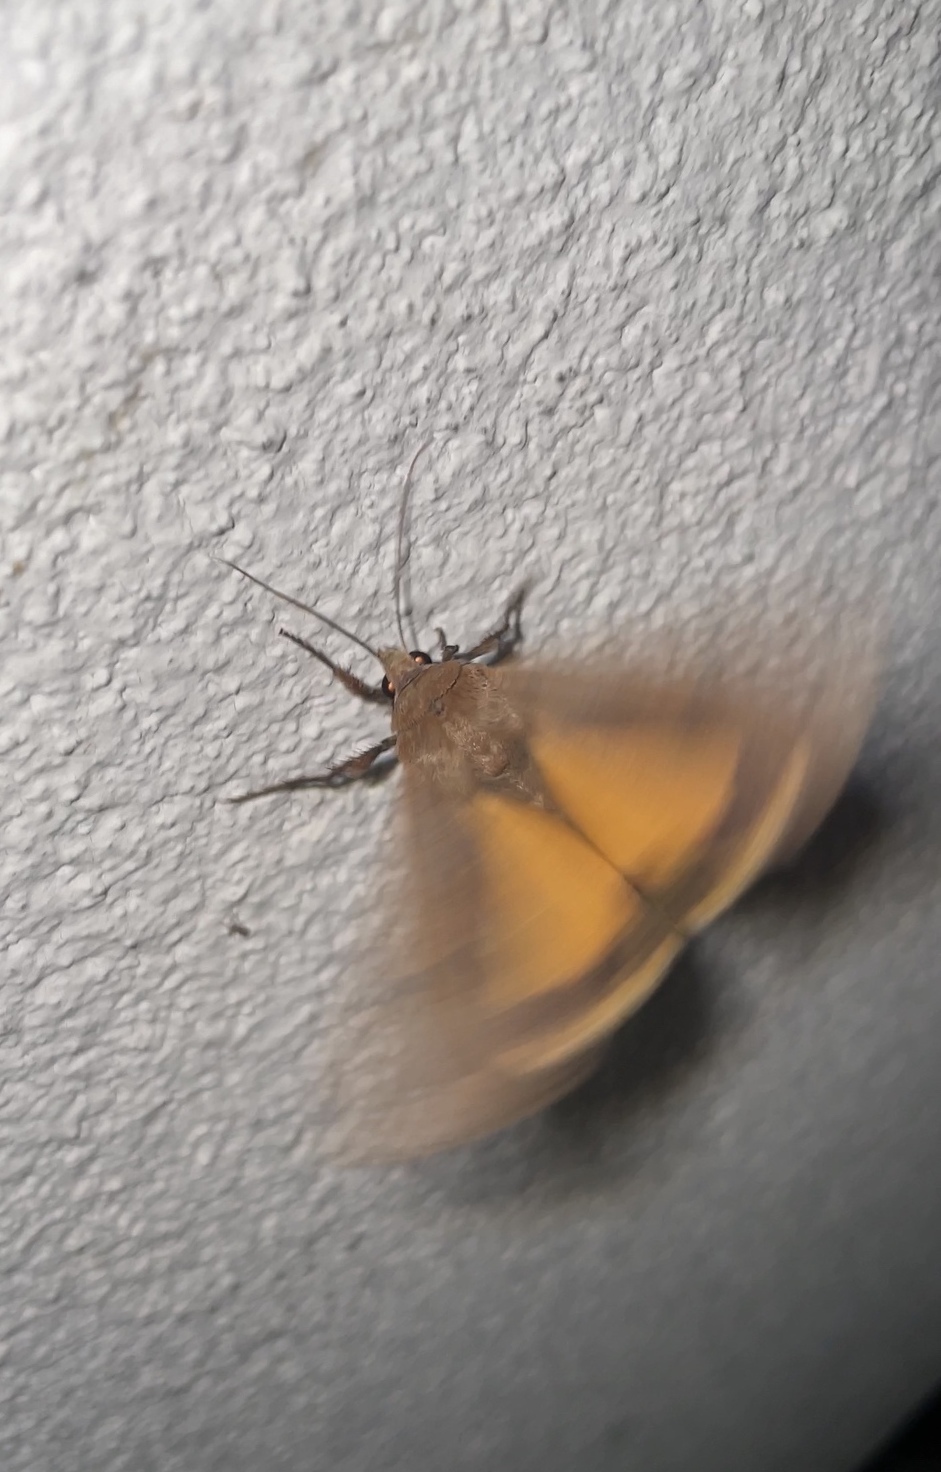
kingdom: Animalia
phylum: Arthropoda
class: Insecta
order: Lepidoptera
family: Noctuidae
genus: Noctua
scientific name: Noctua pronuba
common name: Large yellow underwing
